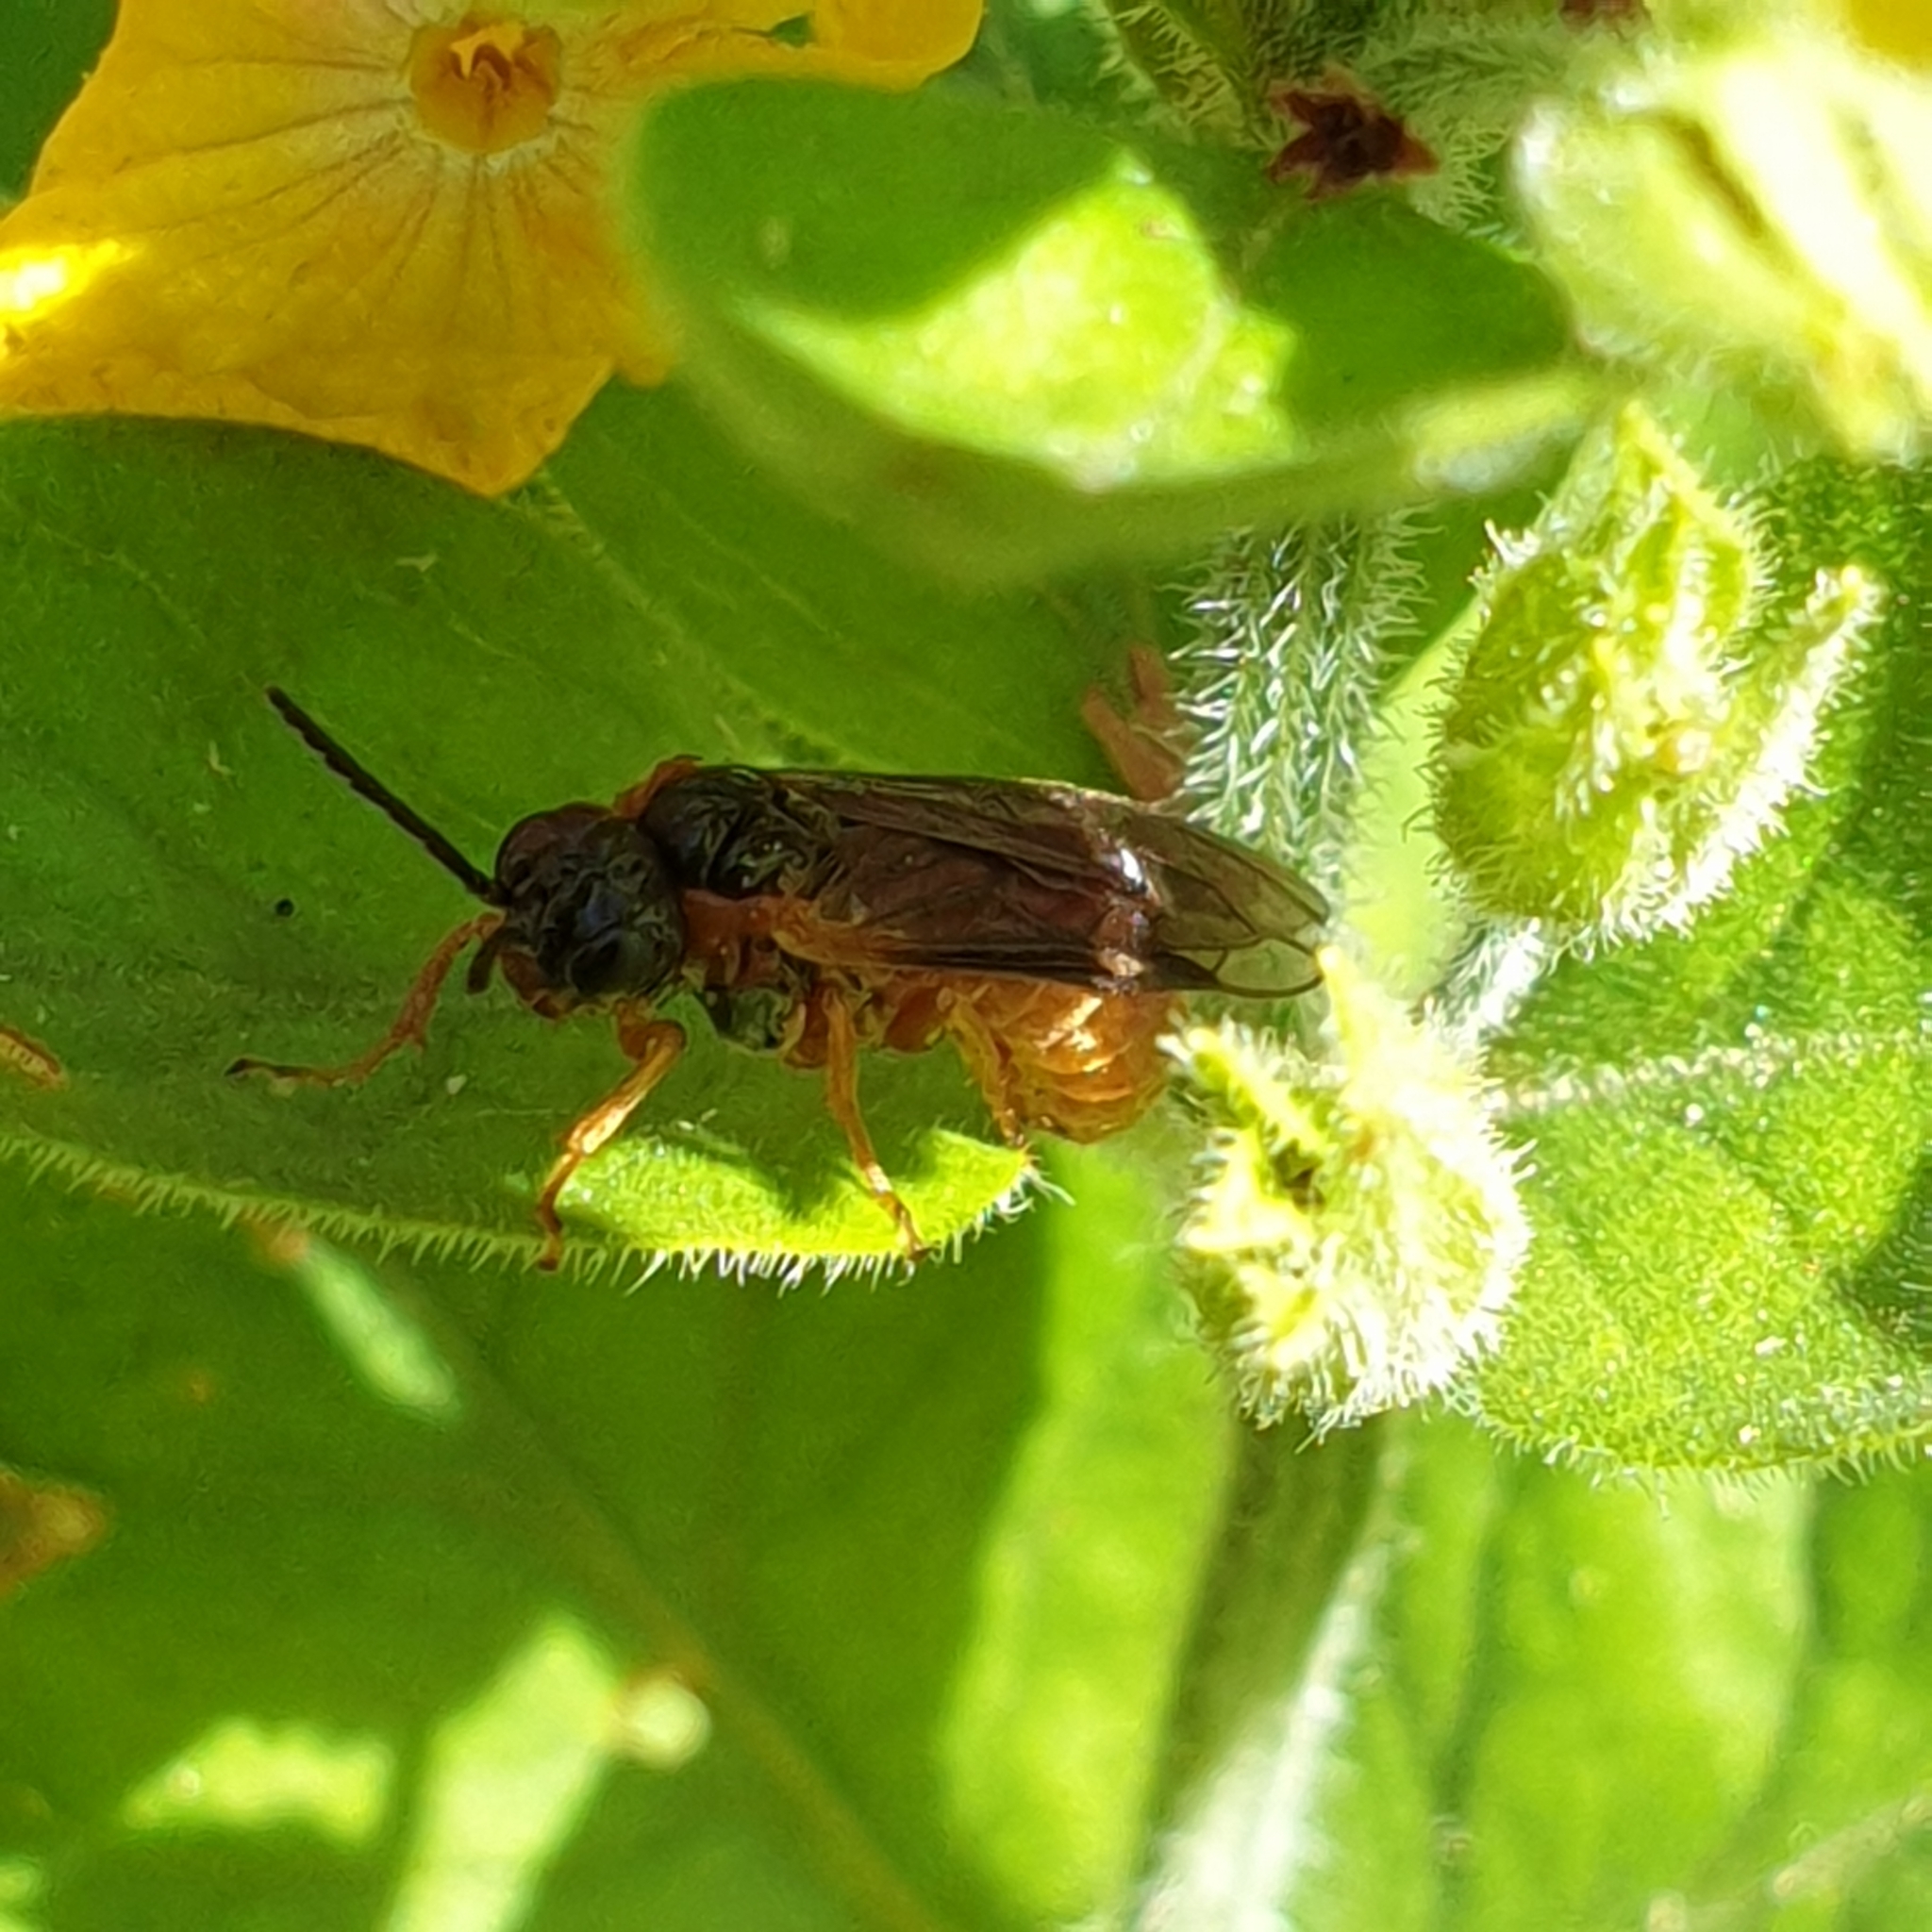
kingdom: Animalia
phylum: Arthropoda
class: Insecta
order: Hymenoptera
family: Tenthredinidae
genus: Monostegia
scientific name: Monostegia abdominalis
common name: Tenthredid wasp
